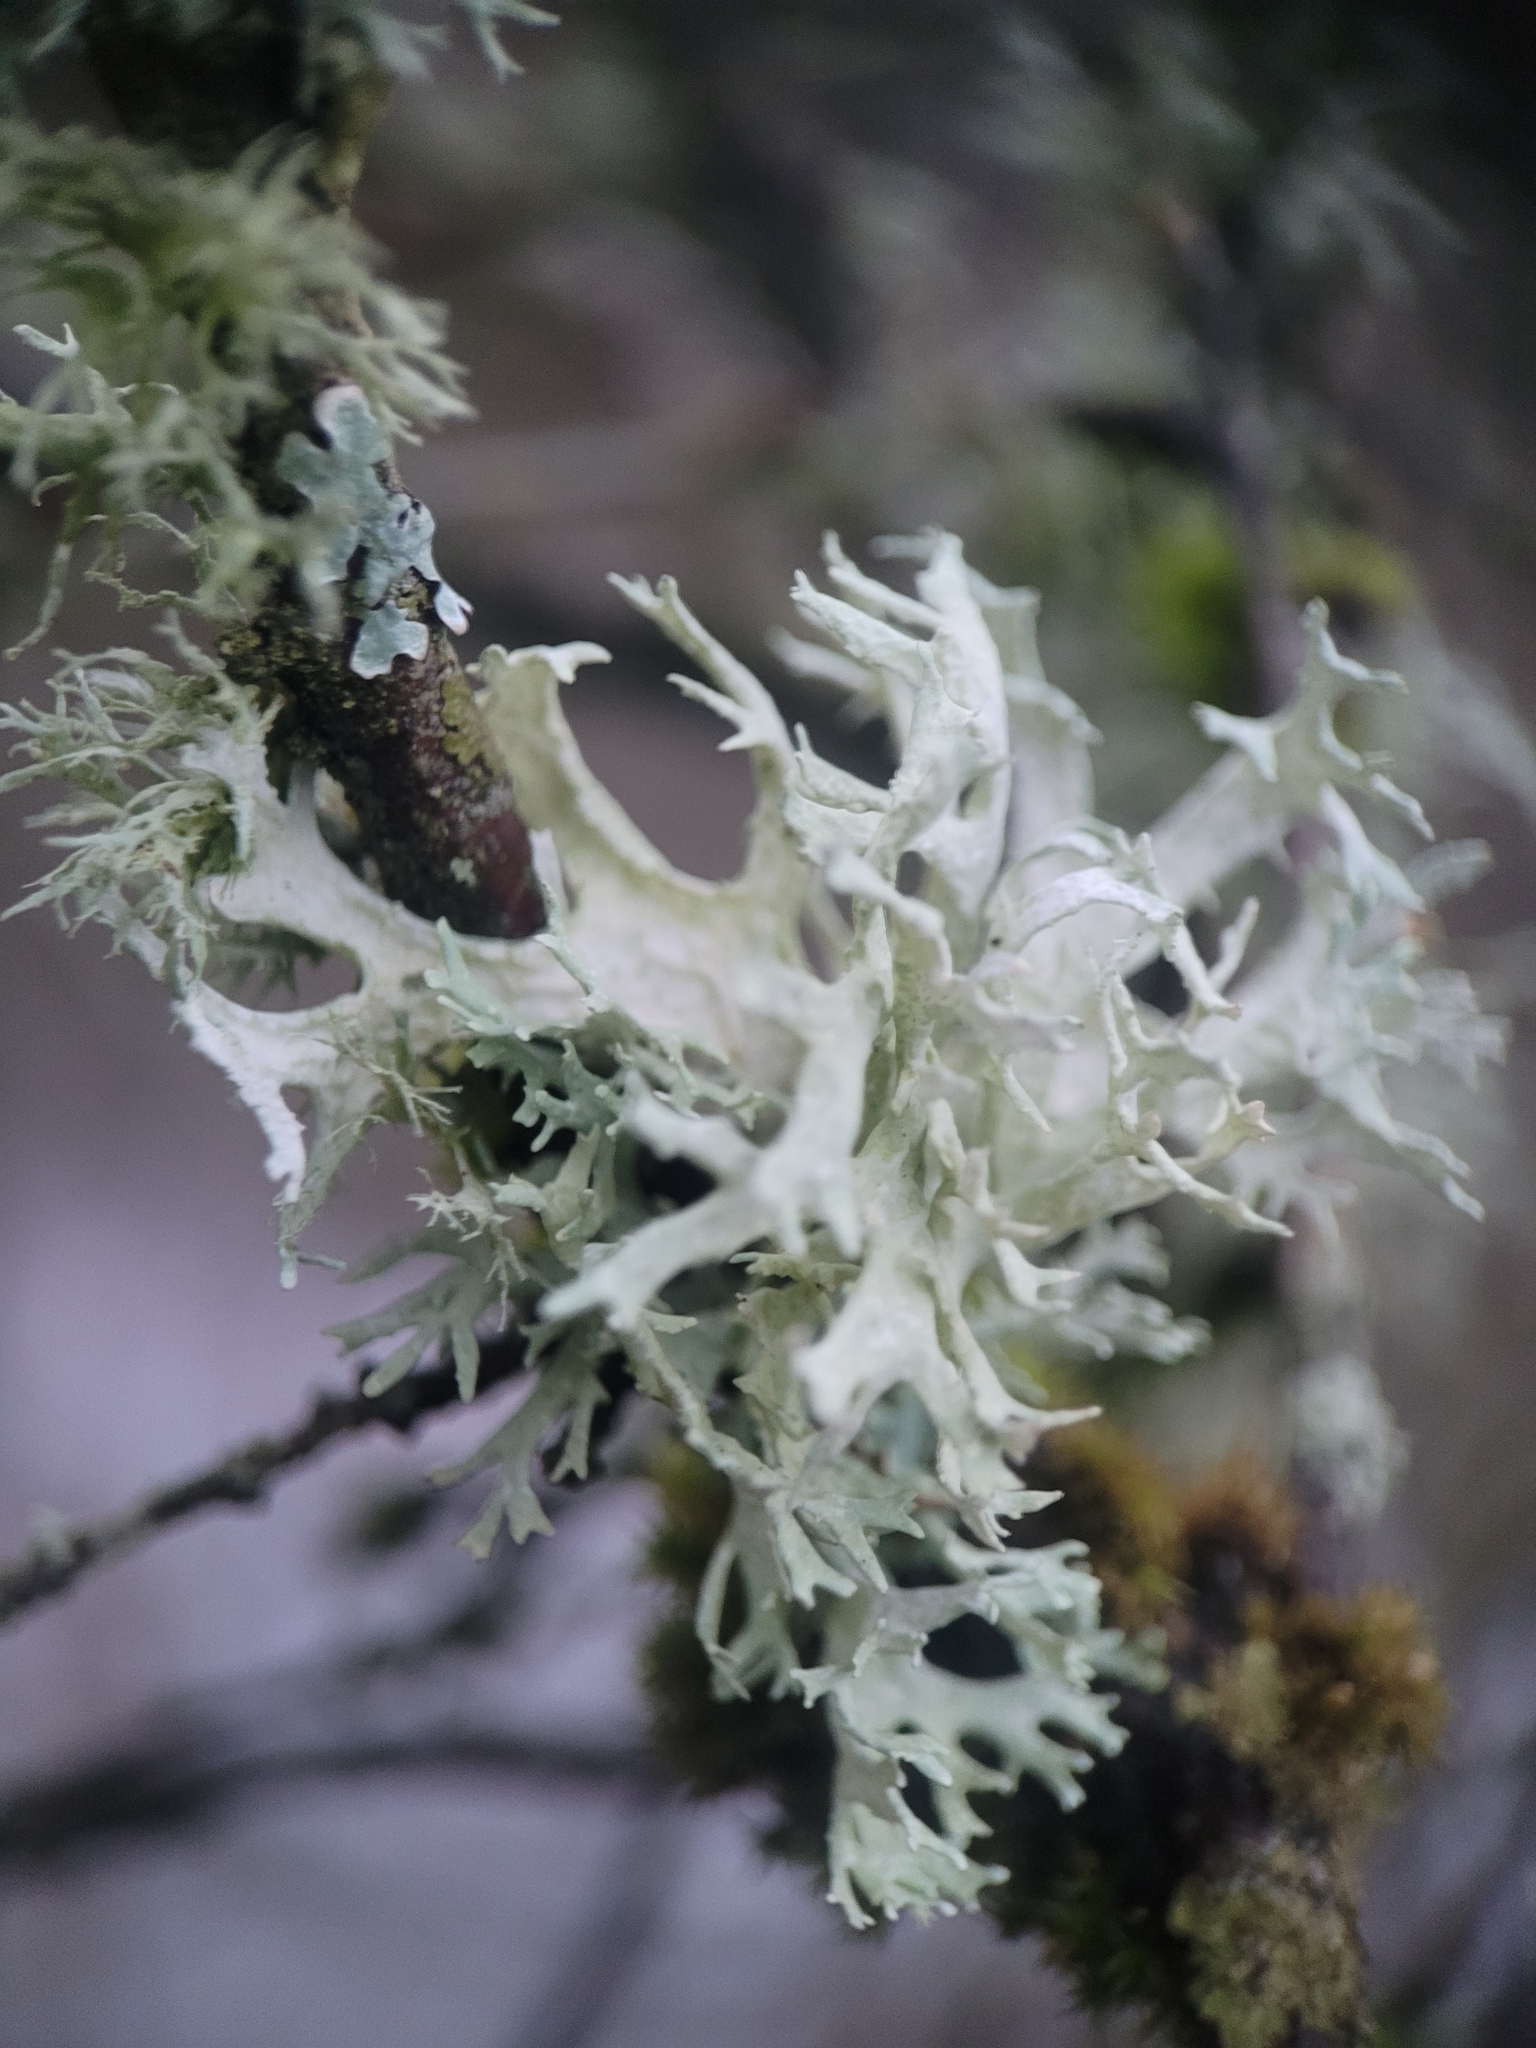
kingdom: Fungi
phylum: Ascomycota
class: Lecanoromycetes
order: Lecanorales
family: Parmeliaceae
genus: Evernia
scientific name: Evernia prunastri
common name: Oak moss
